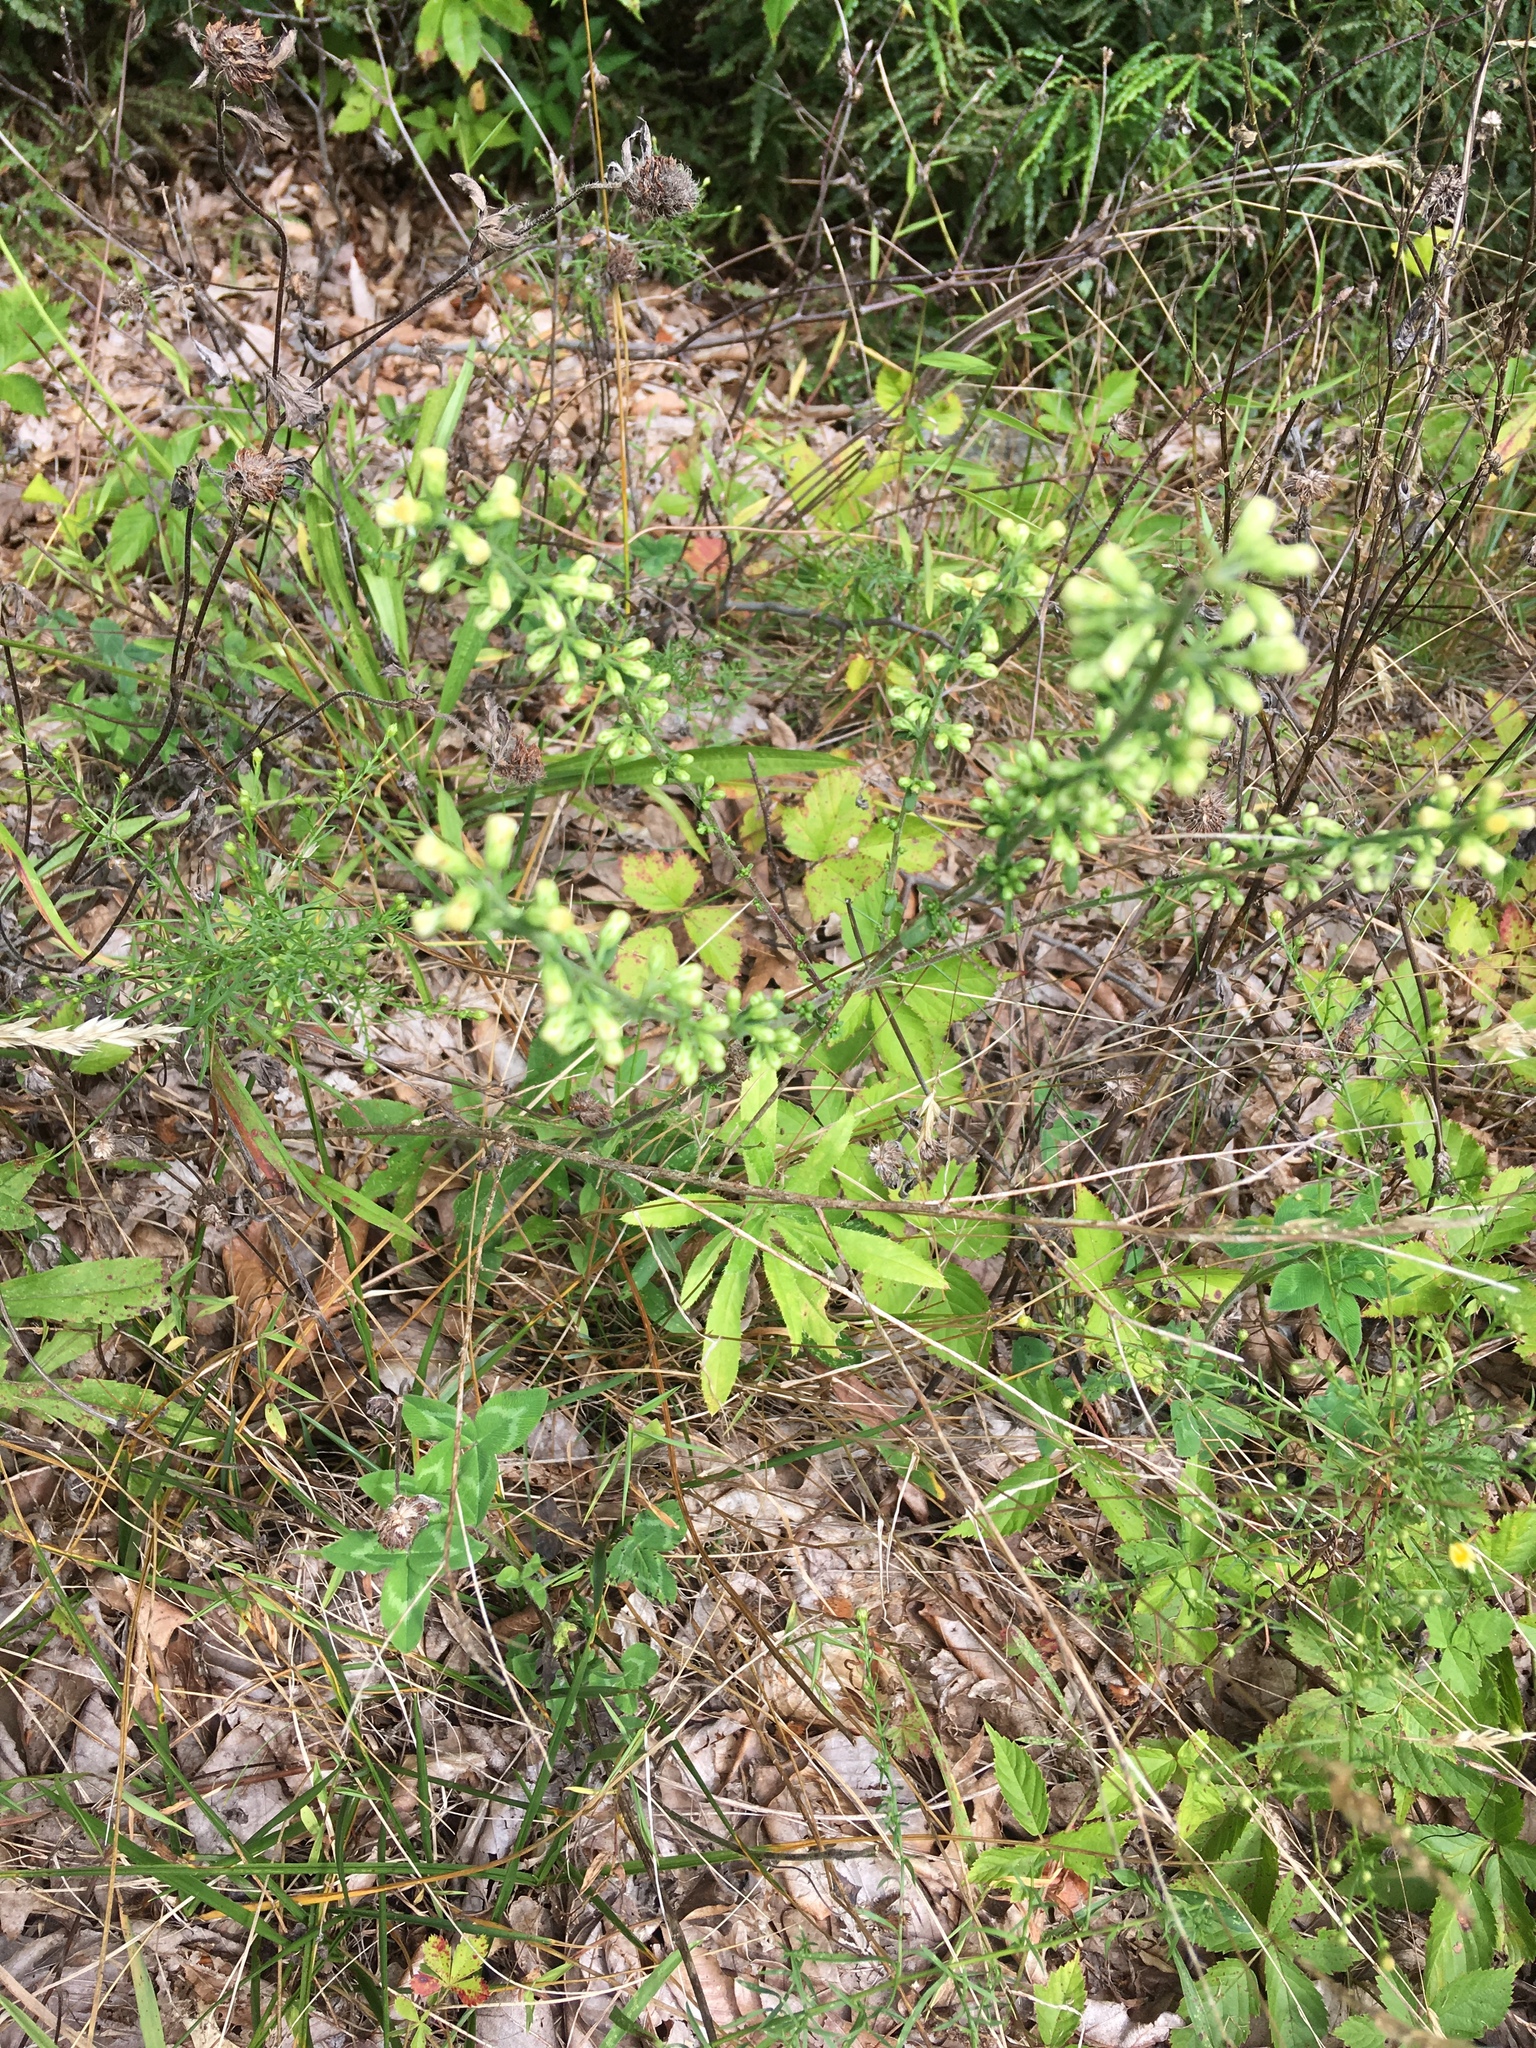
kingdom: Plantae
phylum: Tracheophyta
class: Magnoliopsida
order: Asterales
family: Asteraceae
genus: Solidago
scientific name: Solidago bicolor
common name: Silverrod
